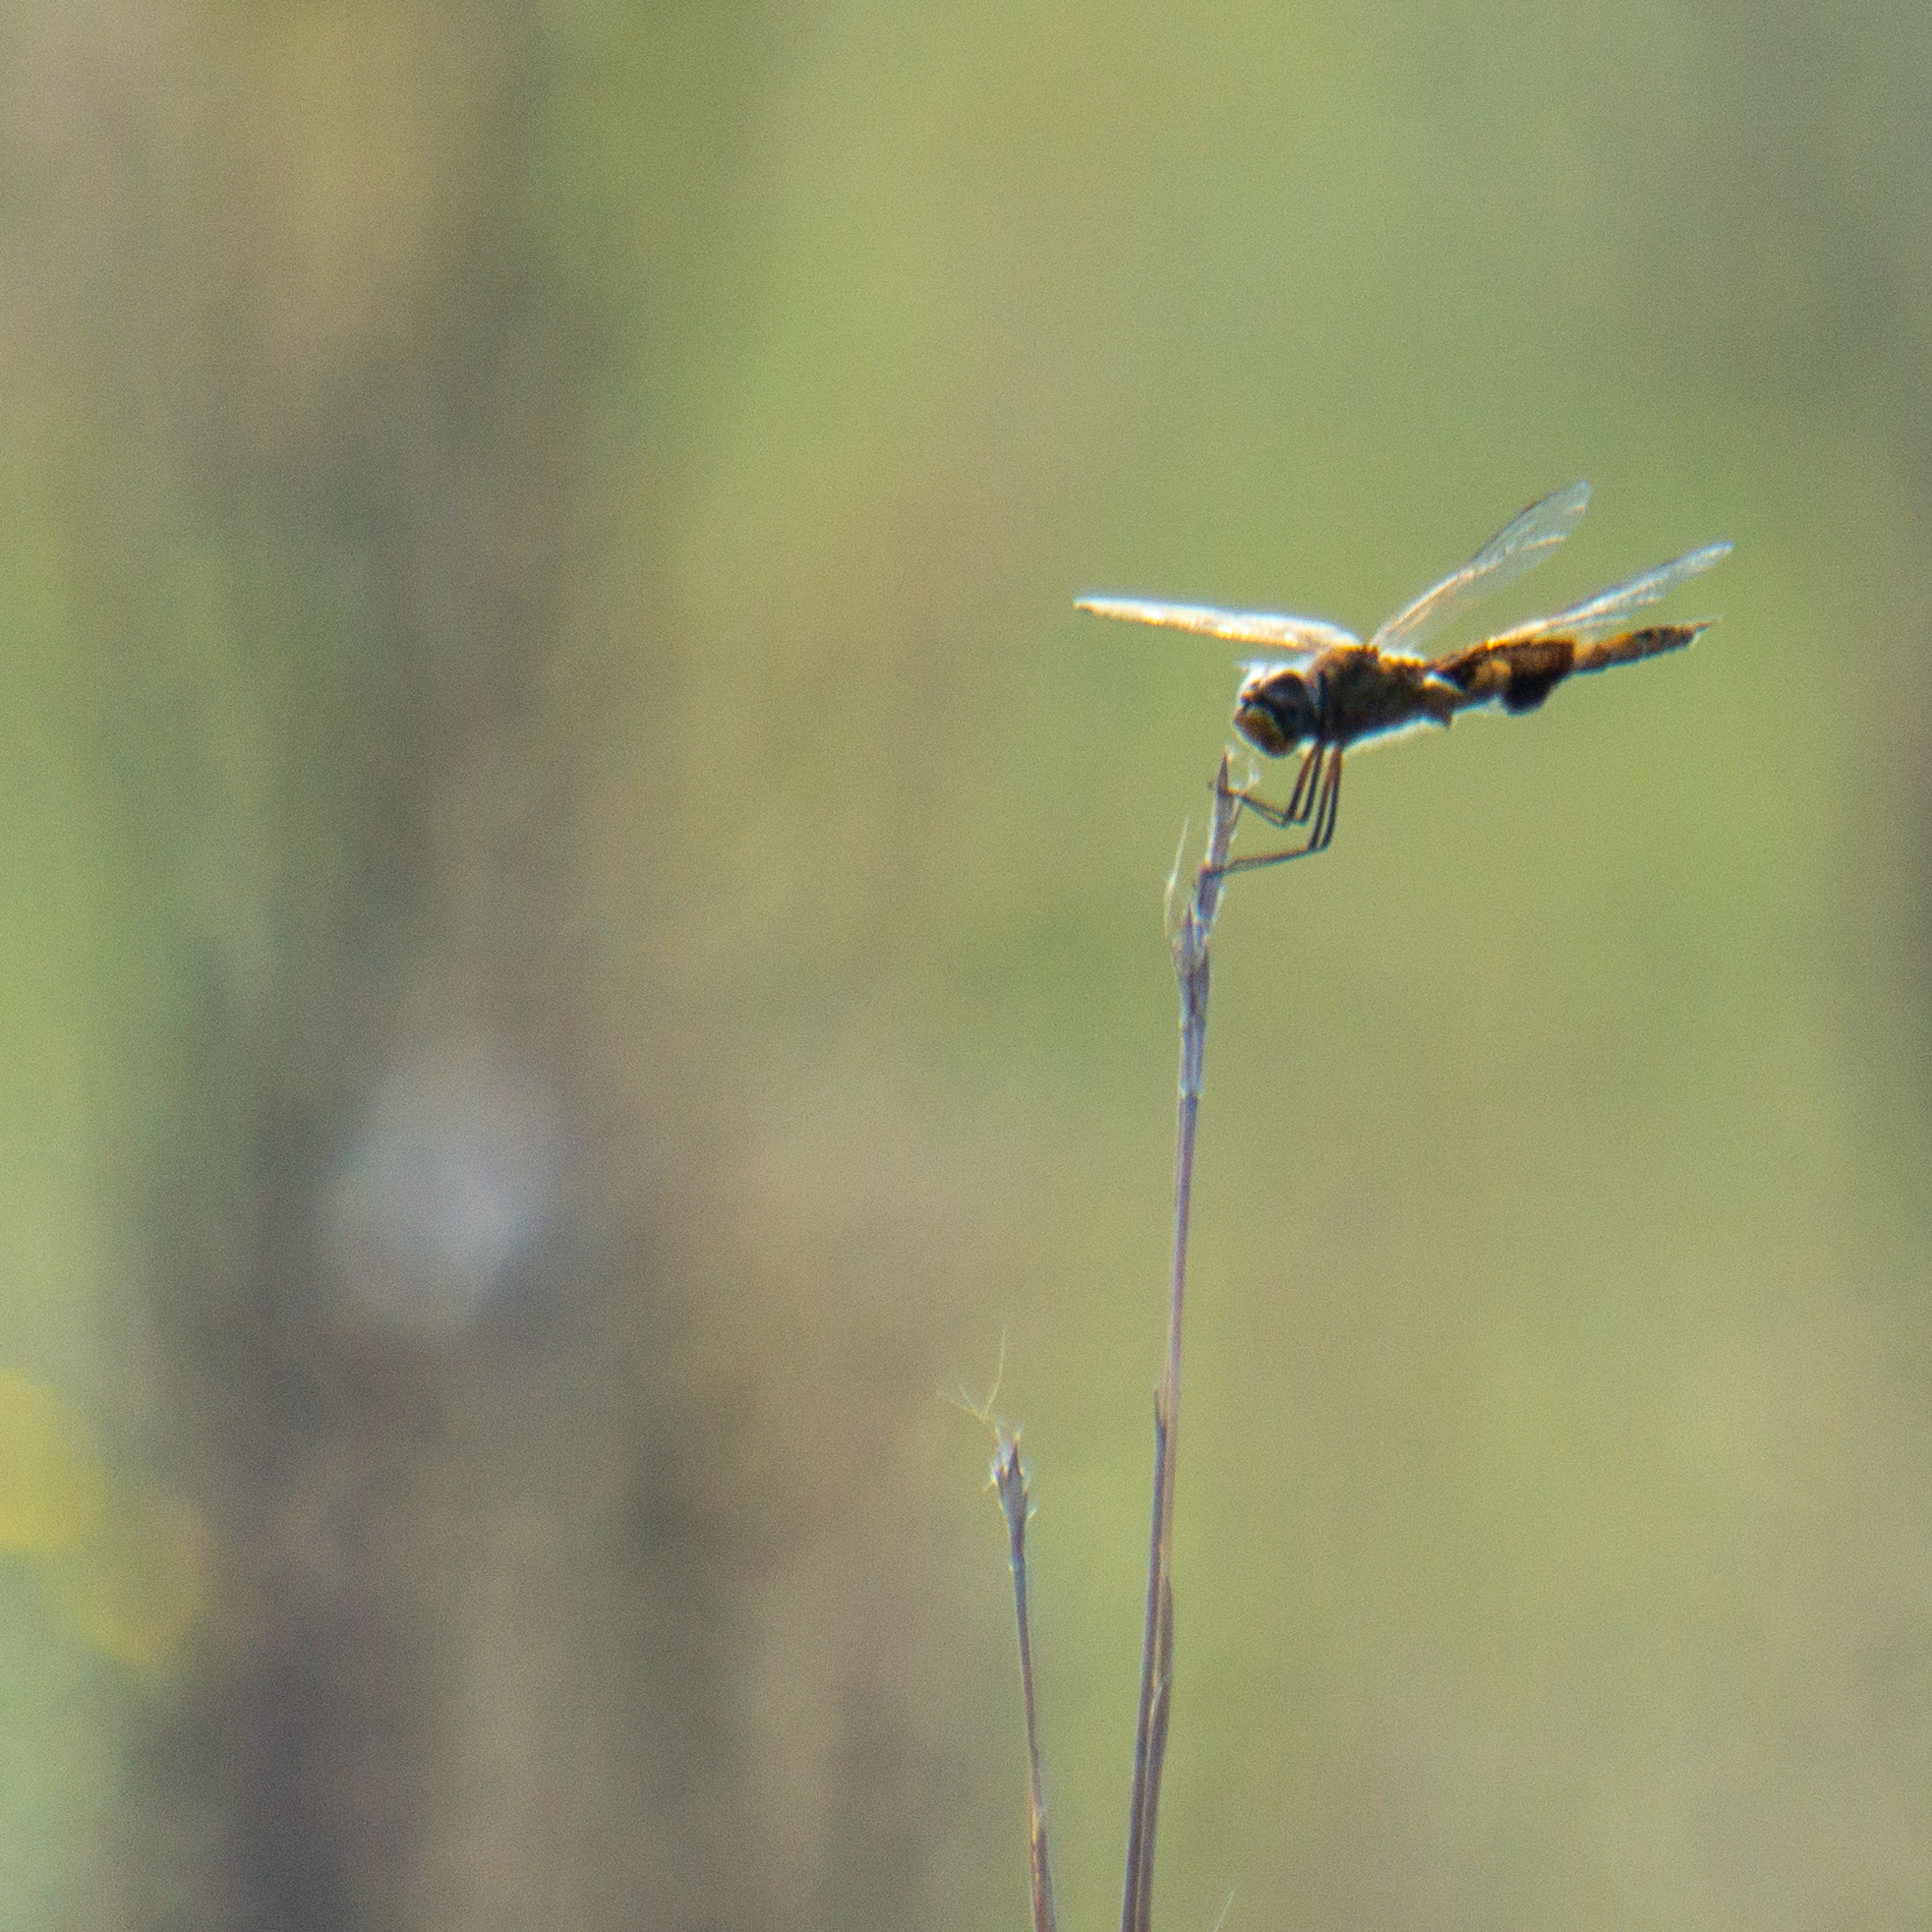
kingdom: Animalia
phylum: Arthropoda
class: Insecta
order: Odonata
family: Libellulidae
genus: Tramea
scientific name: Tramea onusta
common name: Red saddlebags
